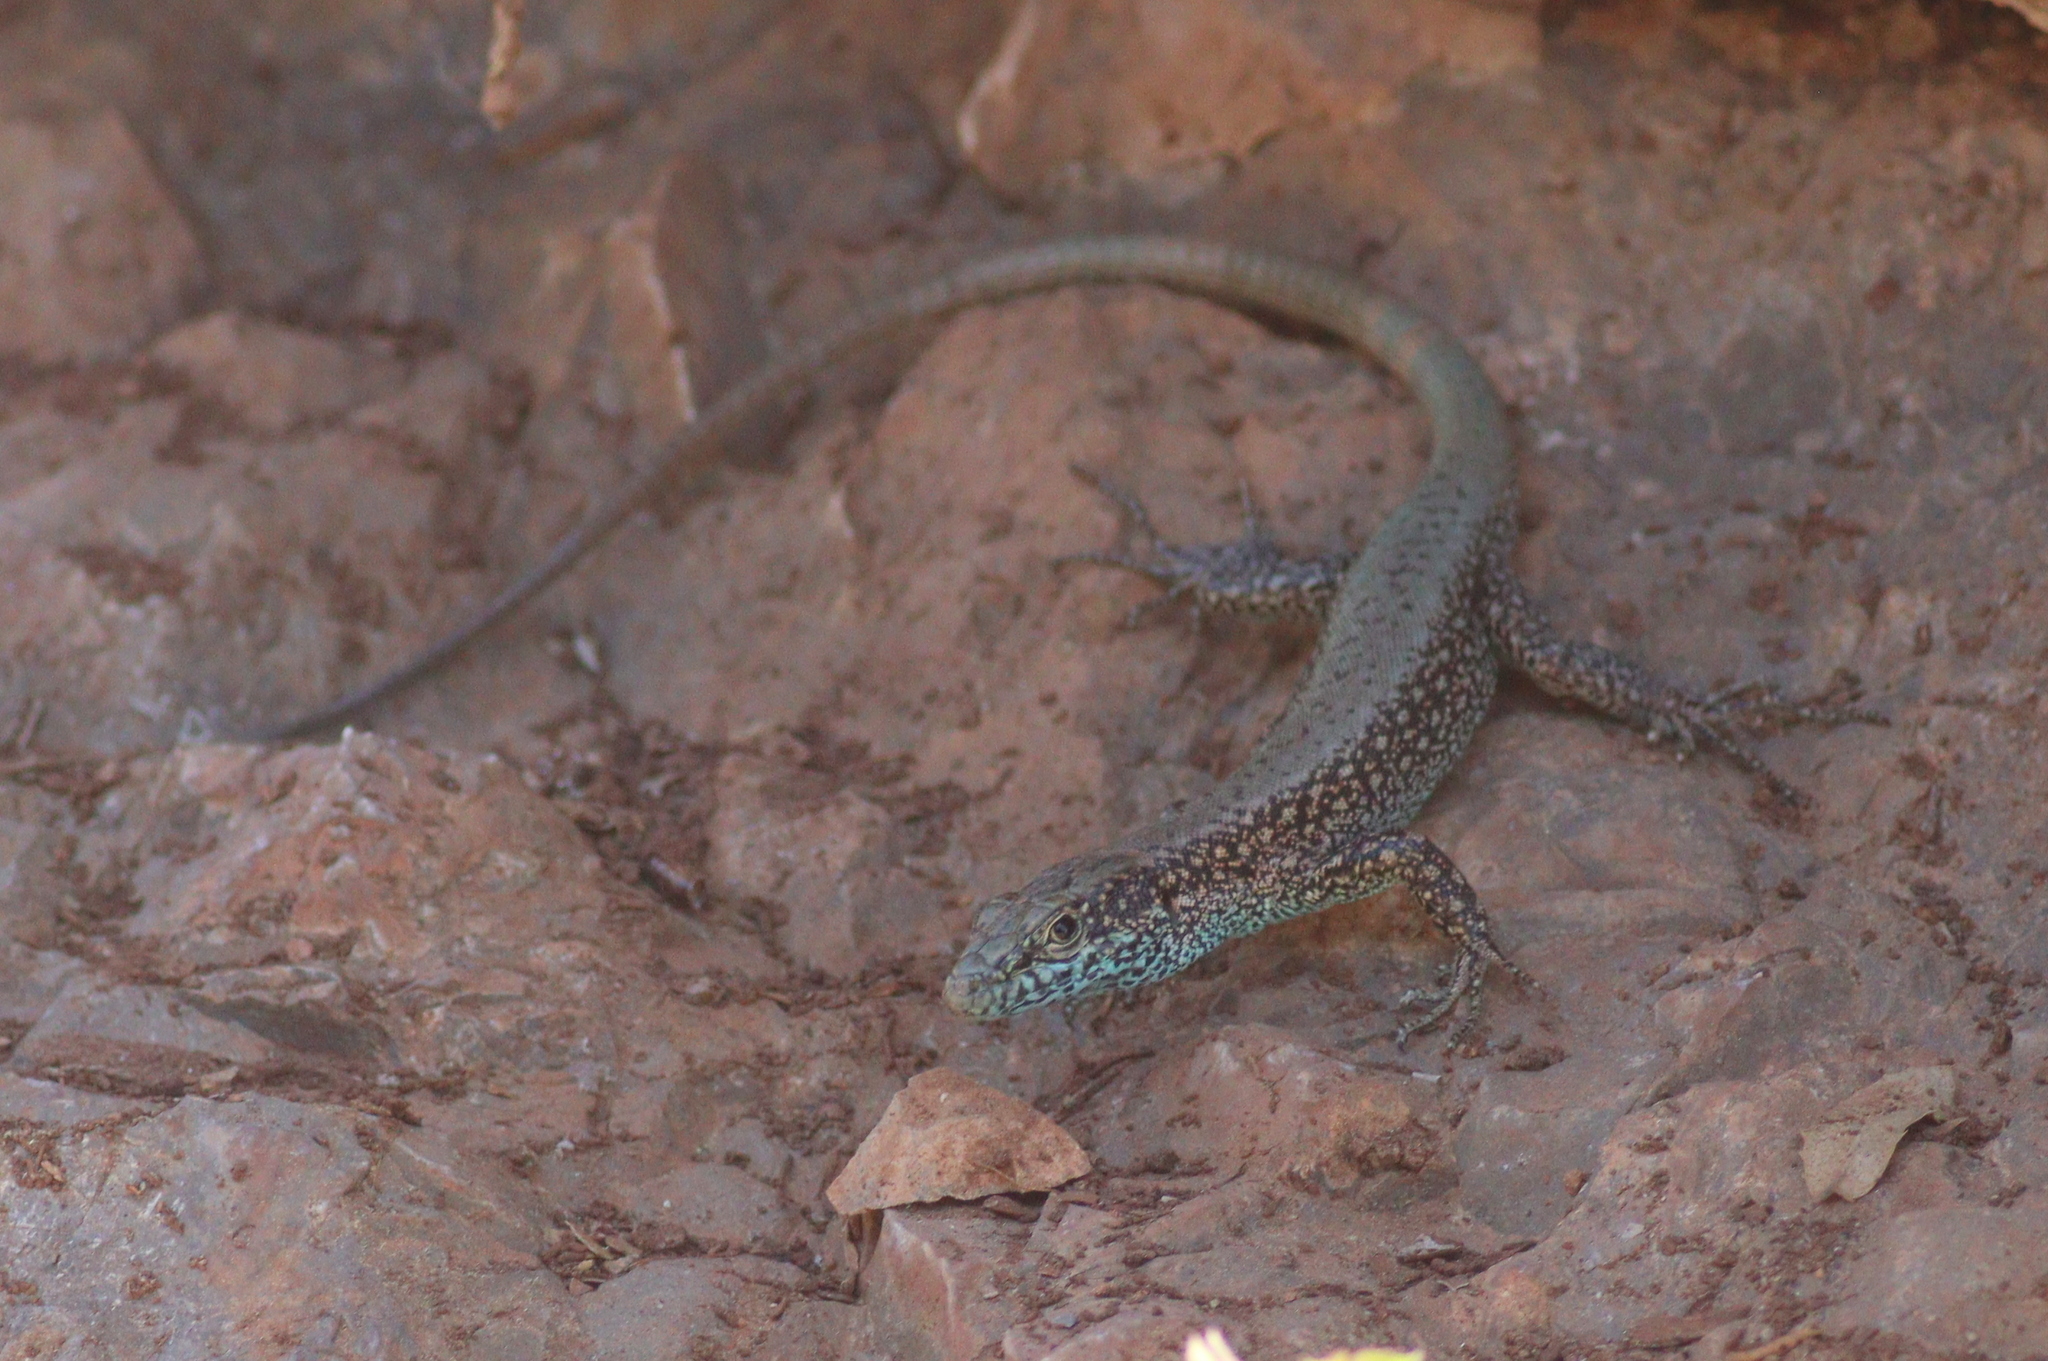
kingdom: Animalia
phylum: Chordata
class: Squamata
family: Lacertidae
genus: Anatololacerta
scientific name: Anatololacerta danfordi
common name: Danford's lizard
